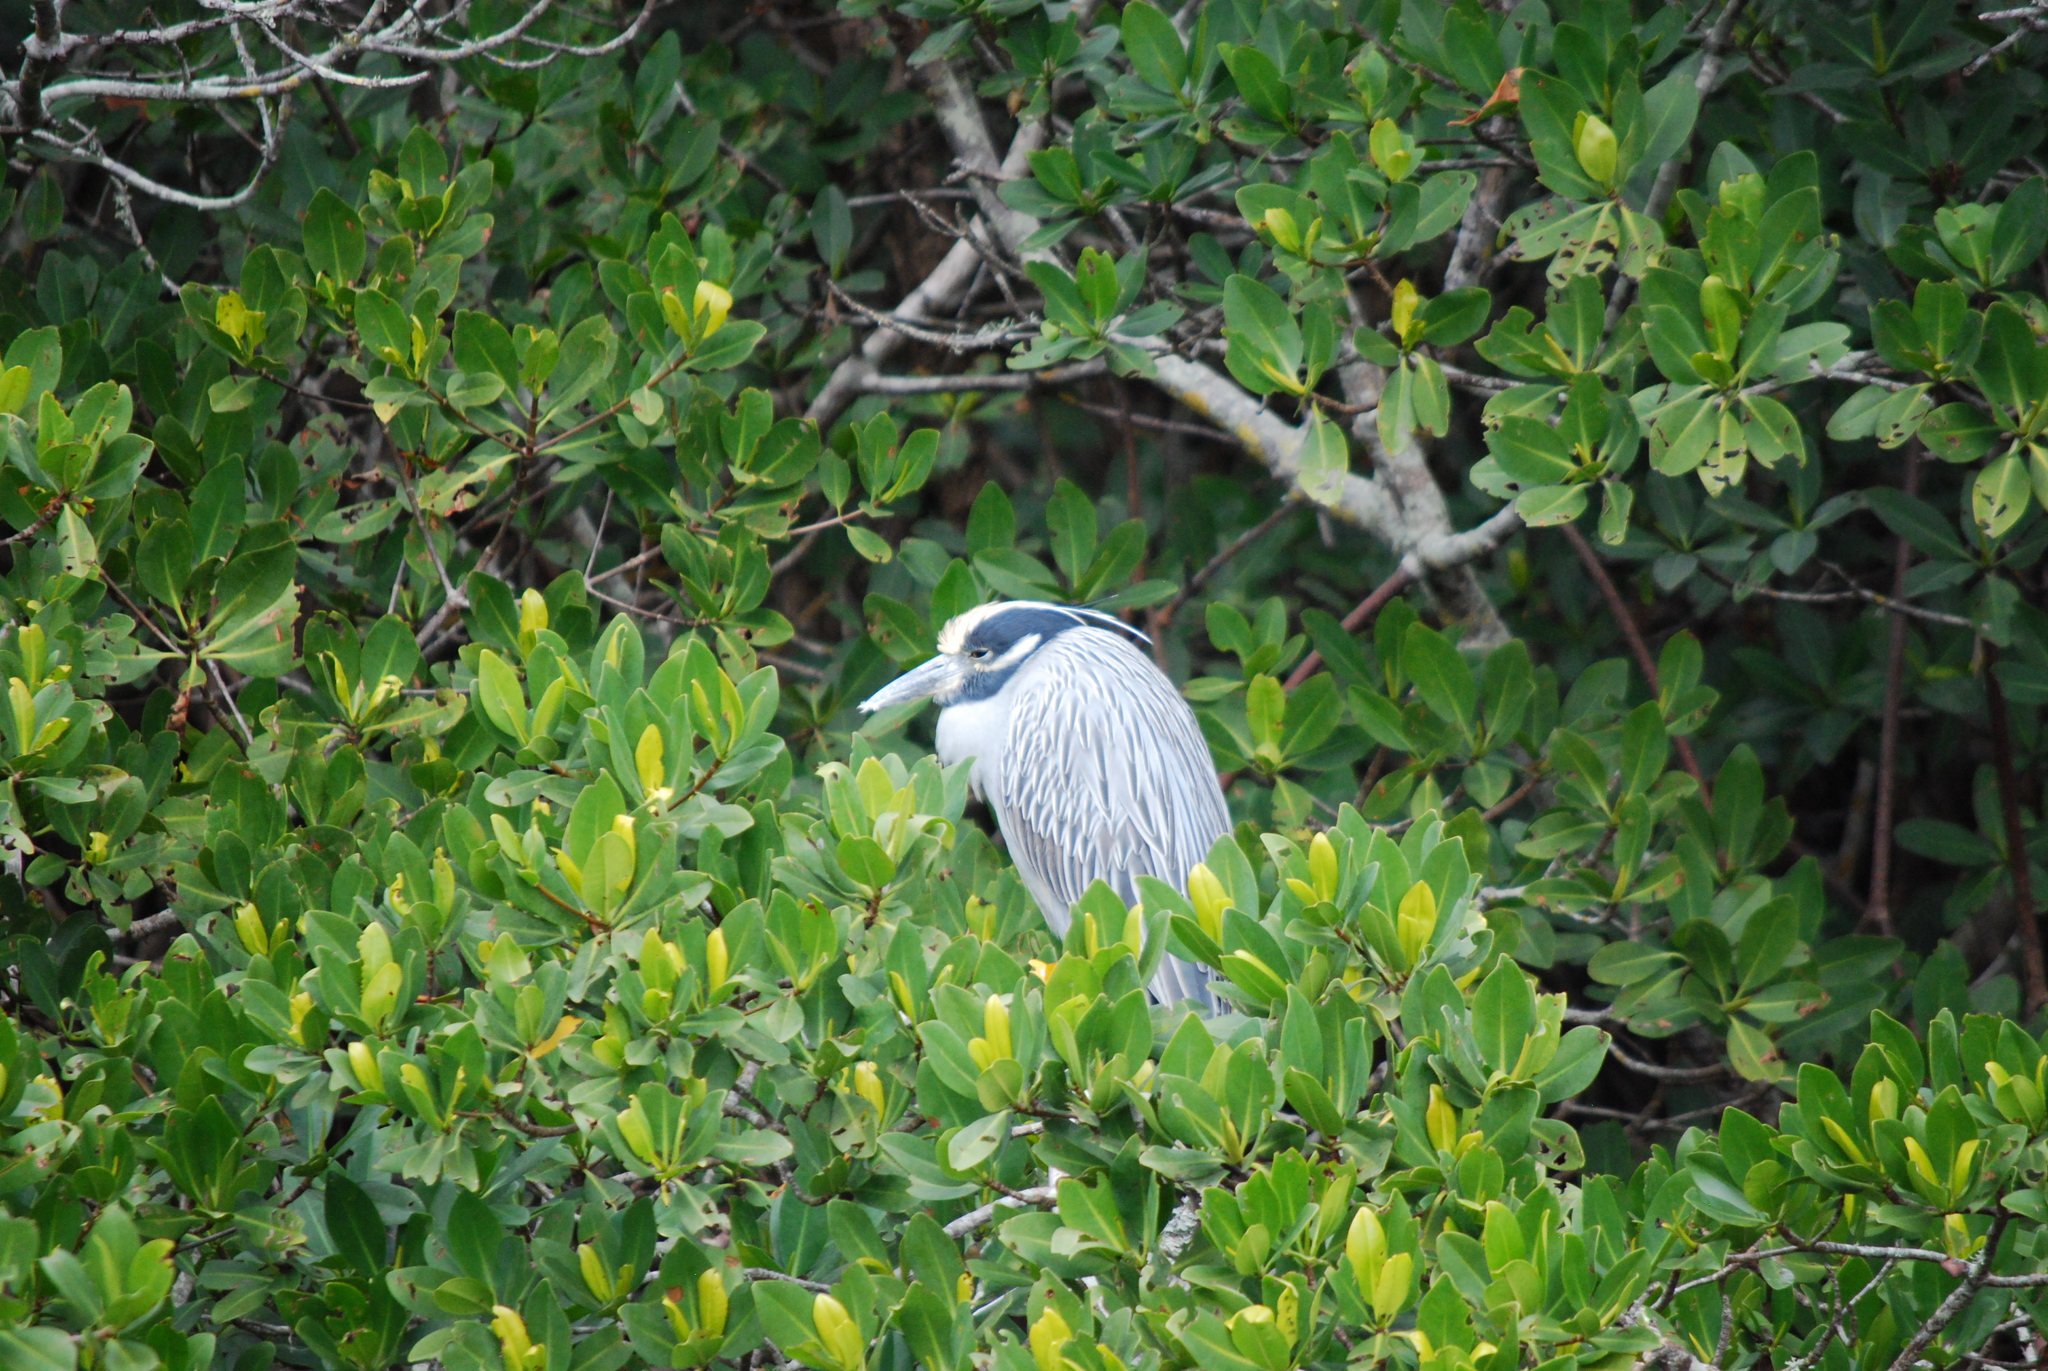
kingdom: Animalia
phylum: Chordata
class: Aves
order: Pelecaniformes
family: Ardeidae
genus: Nyctanassa
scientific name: Nyctanassa violacea
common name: Yellow-crowned night heron
